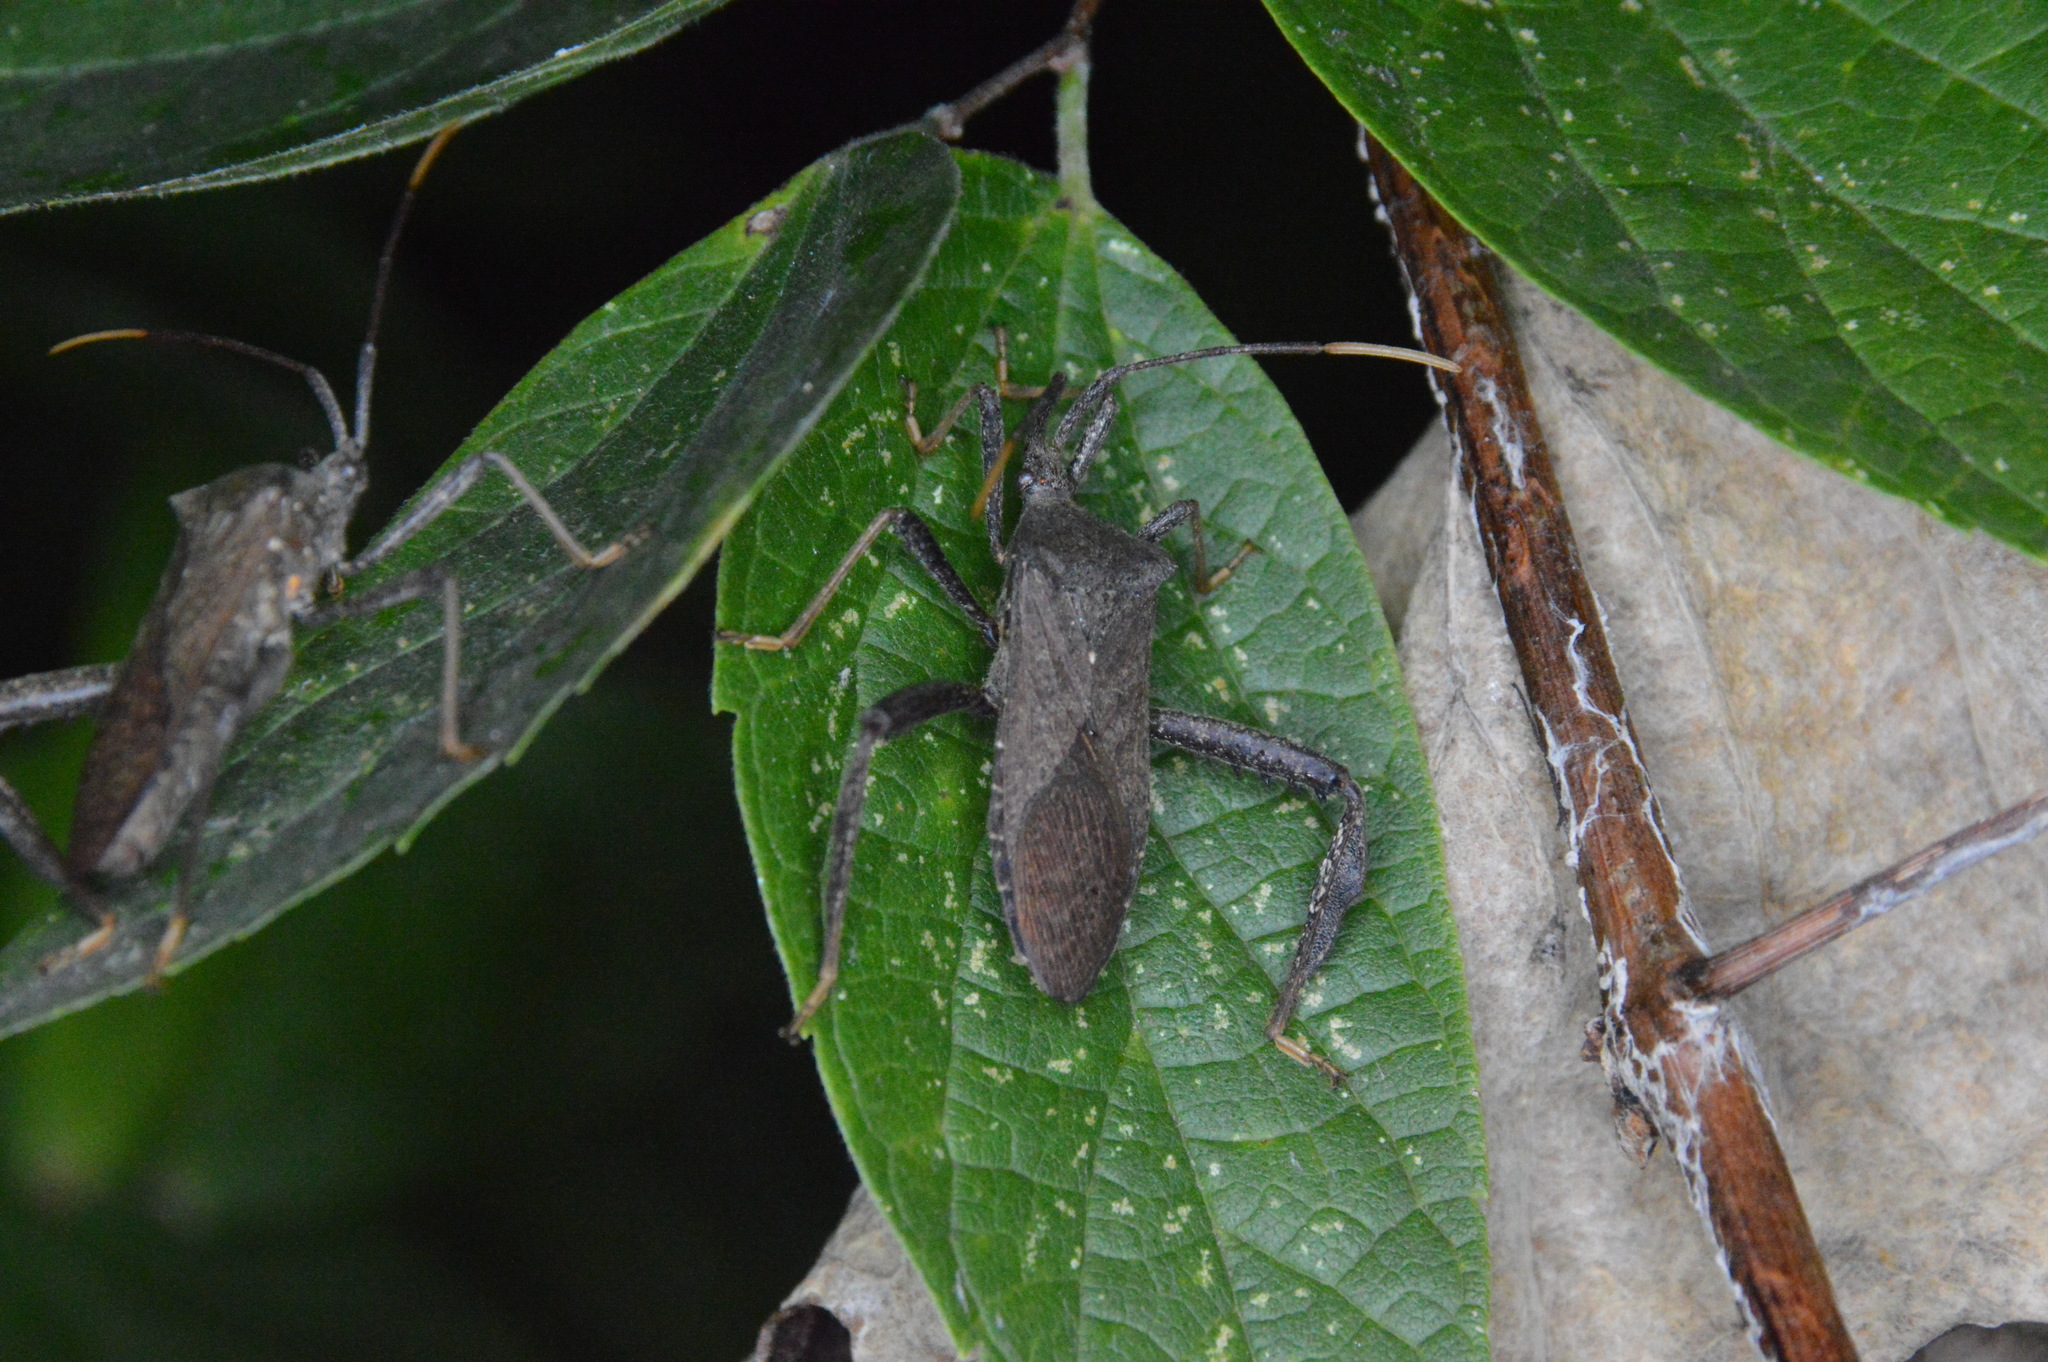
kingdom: Animalia
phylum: Arthropoda
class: Insecta
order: Hemiptera
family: Coreidae
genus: Acanthocephala
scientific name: Acanthocephala terminalis
